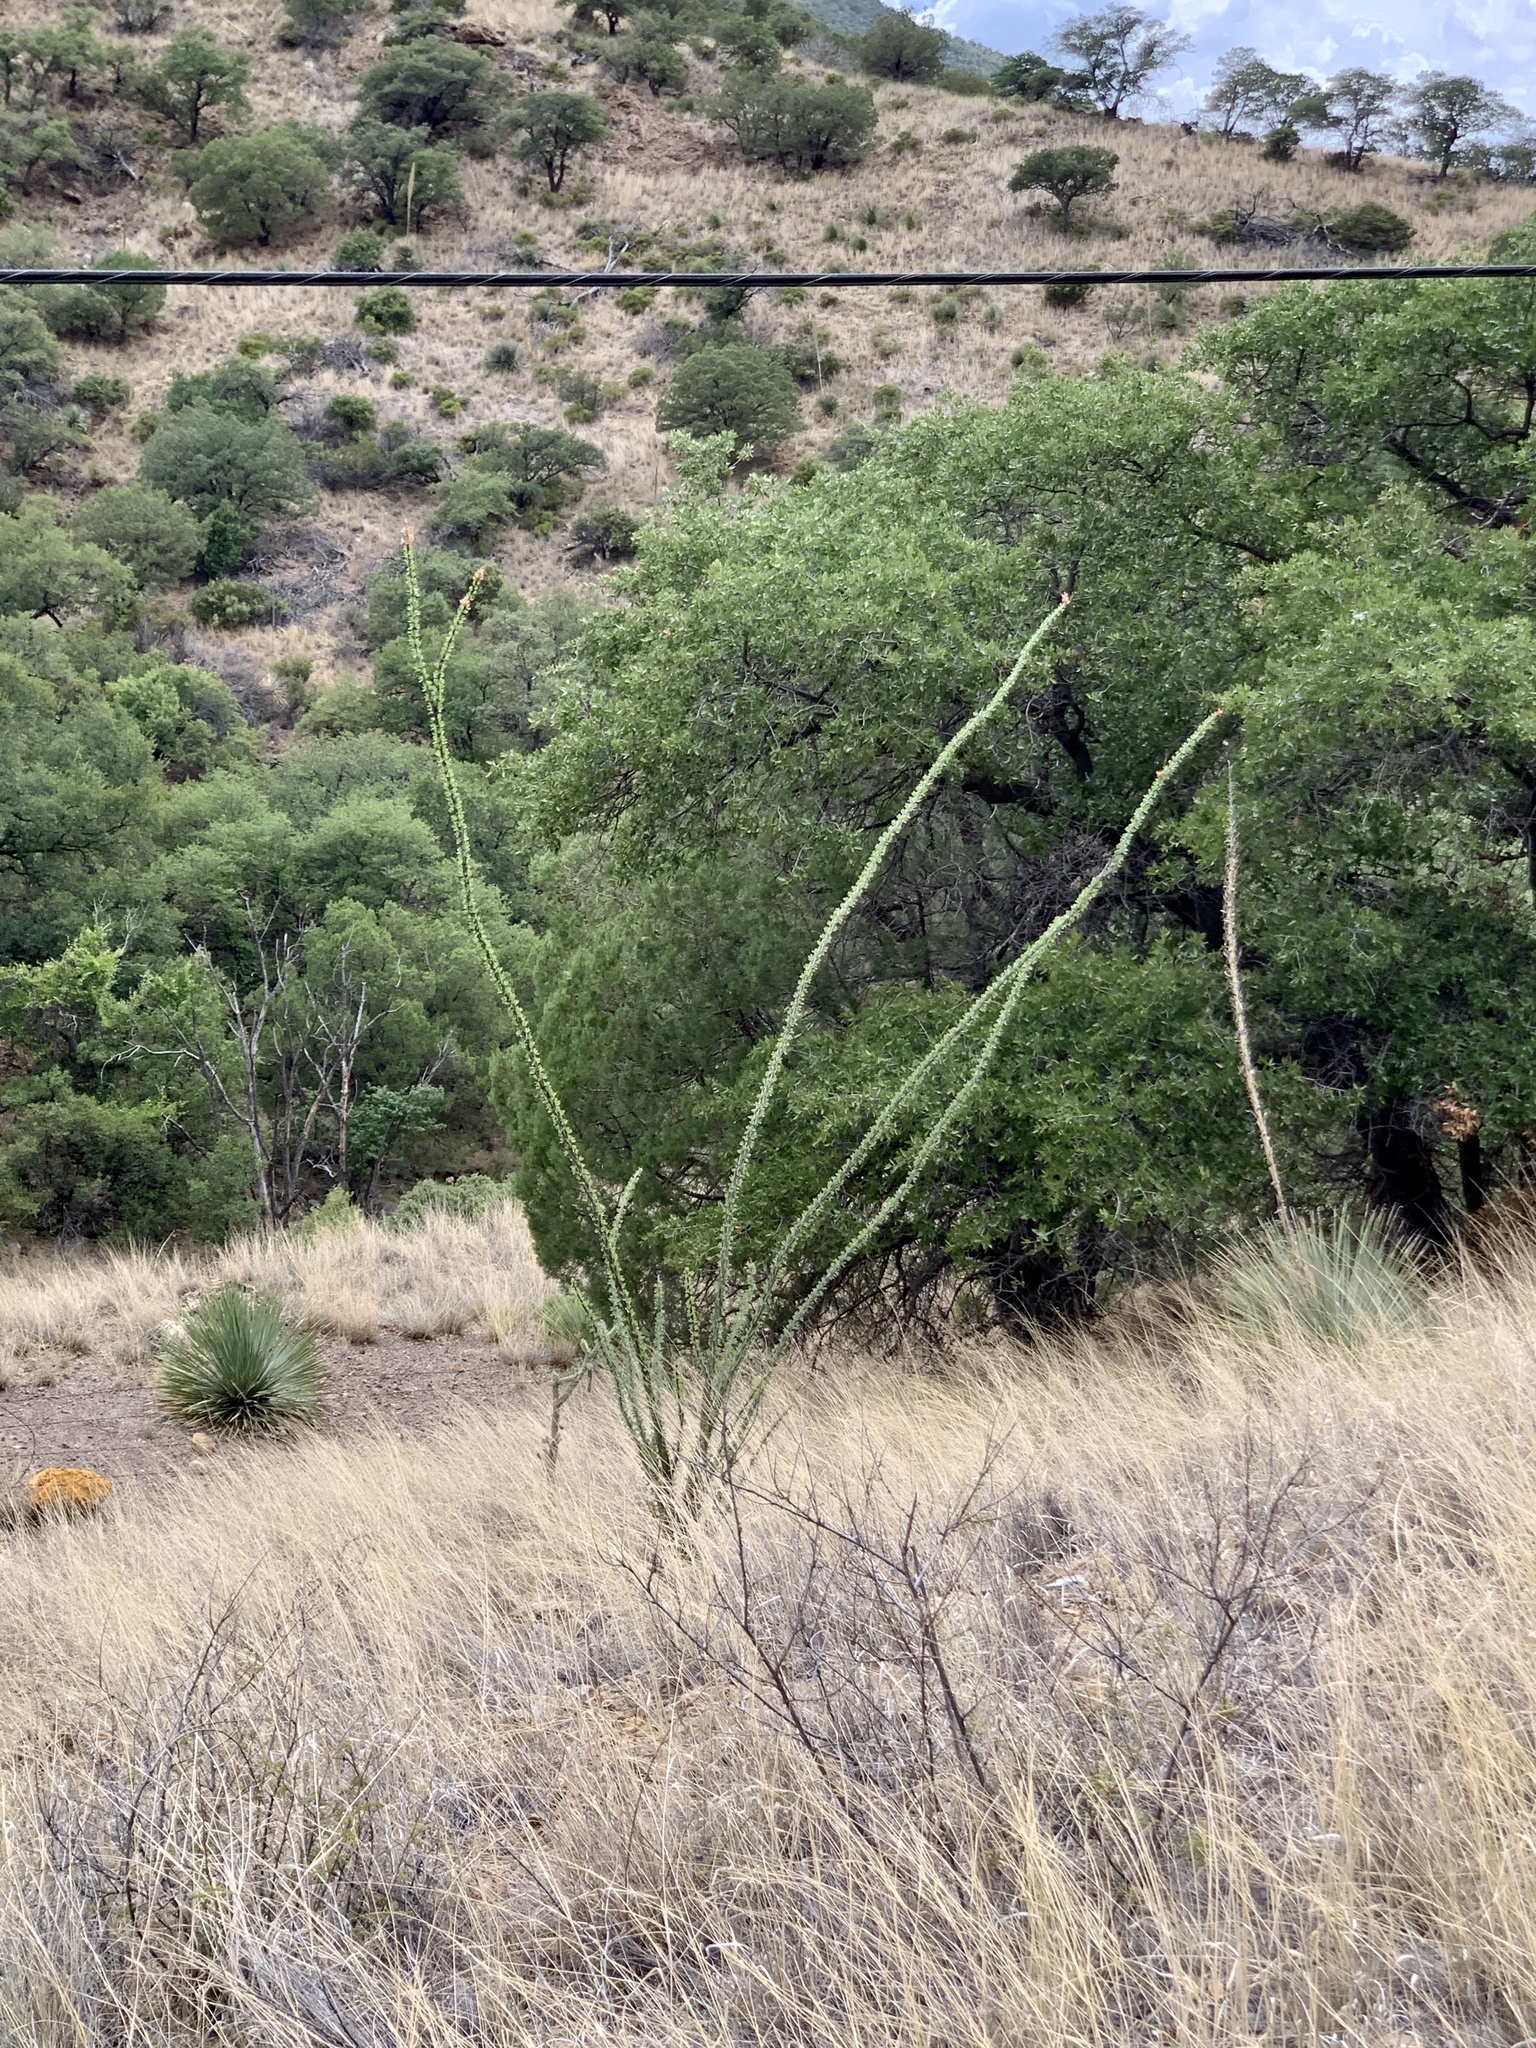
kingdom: Plantae
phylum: Tracheophyta
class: Magnoliopsida
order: Ericales
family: Fouquieriaceae
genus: Fouquieria
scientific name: Fouquieria splendens
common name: Vine-cactus
